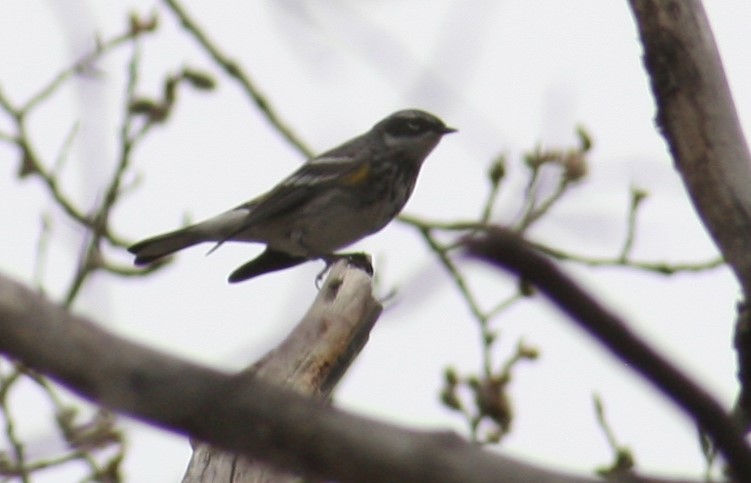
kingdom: Animalia
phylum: Chordata
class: Aves
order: Passeriformes
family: Parulidae
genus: Setophaga
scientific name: Setophaga coronata
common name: Myrtle warbler
